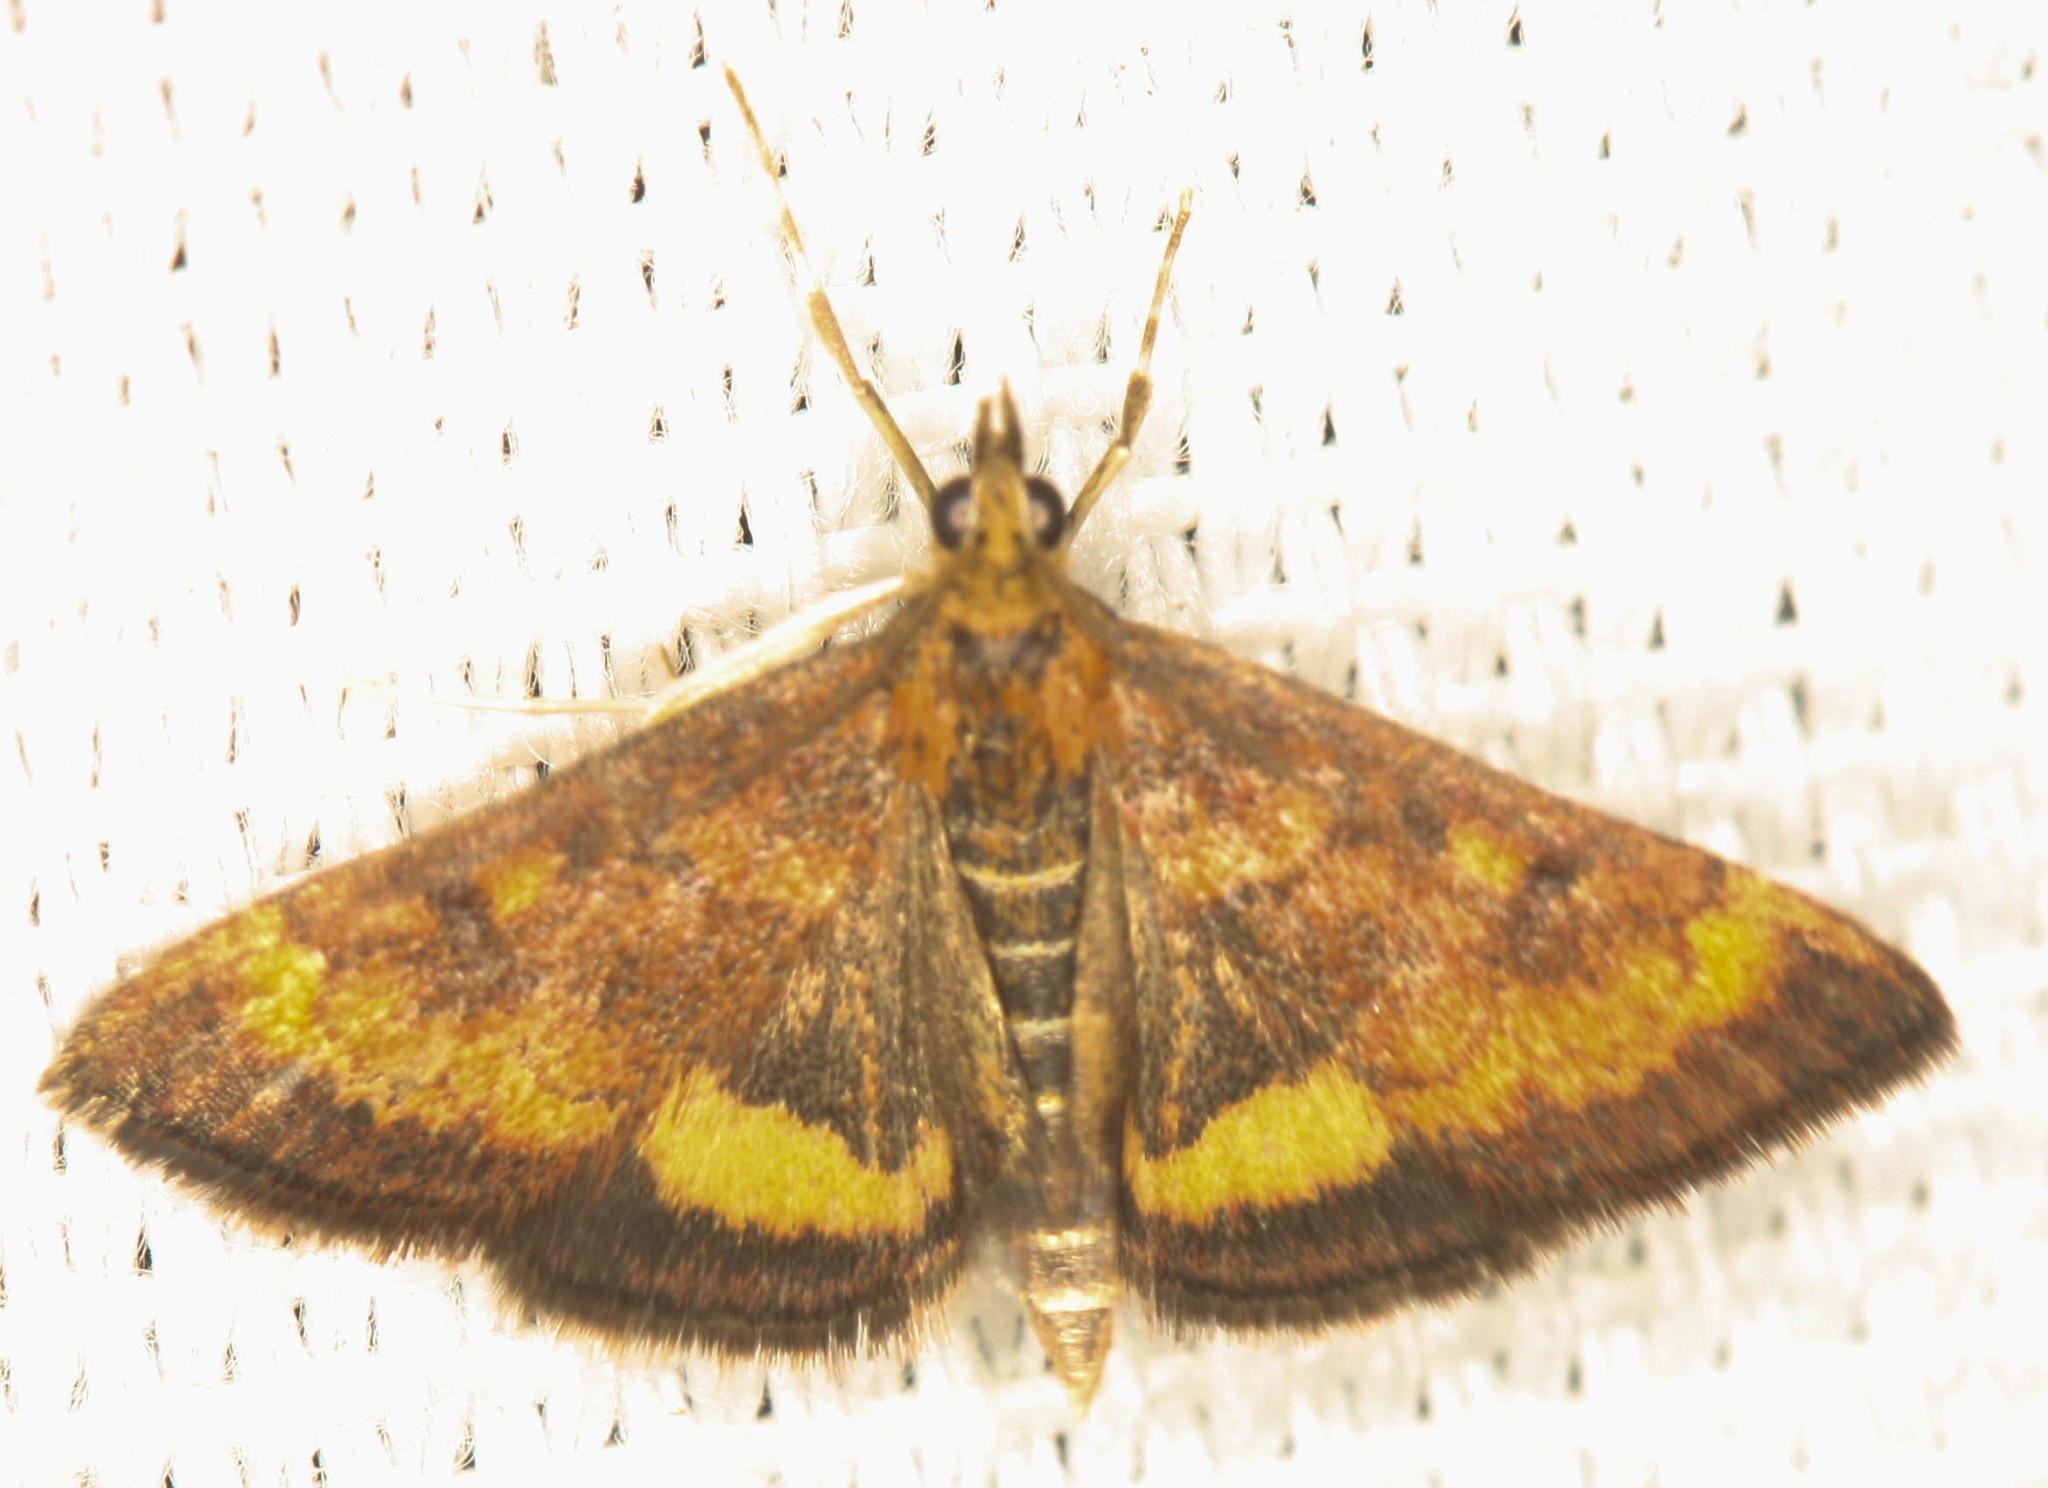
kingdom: Animalia
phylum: Arthropoda
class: Insecta
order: Lepidoptera
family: Crambidae
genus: Pyrausta
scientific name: Pyrausta californicalis
